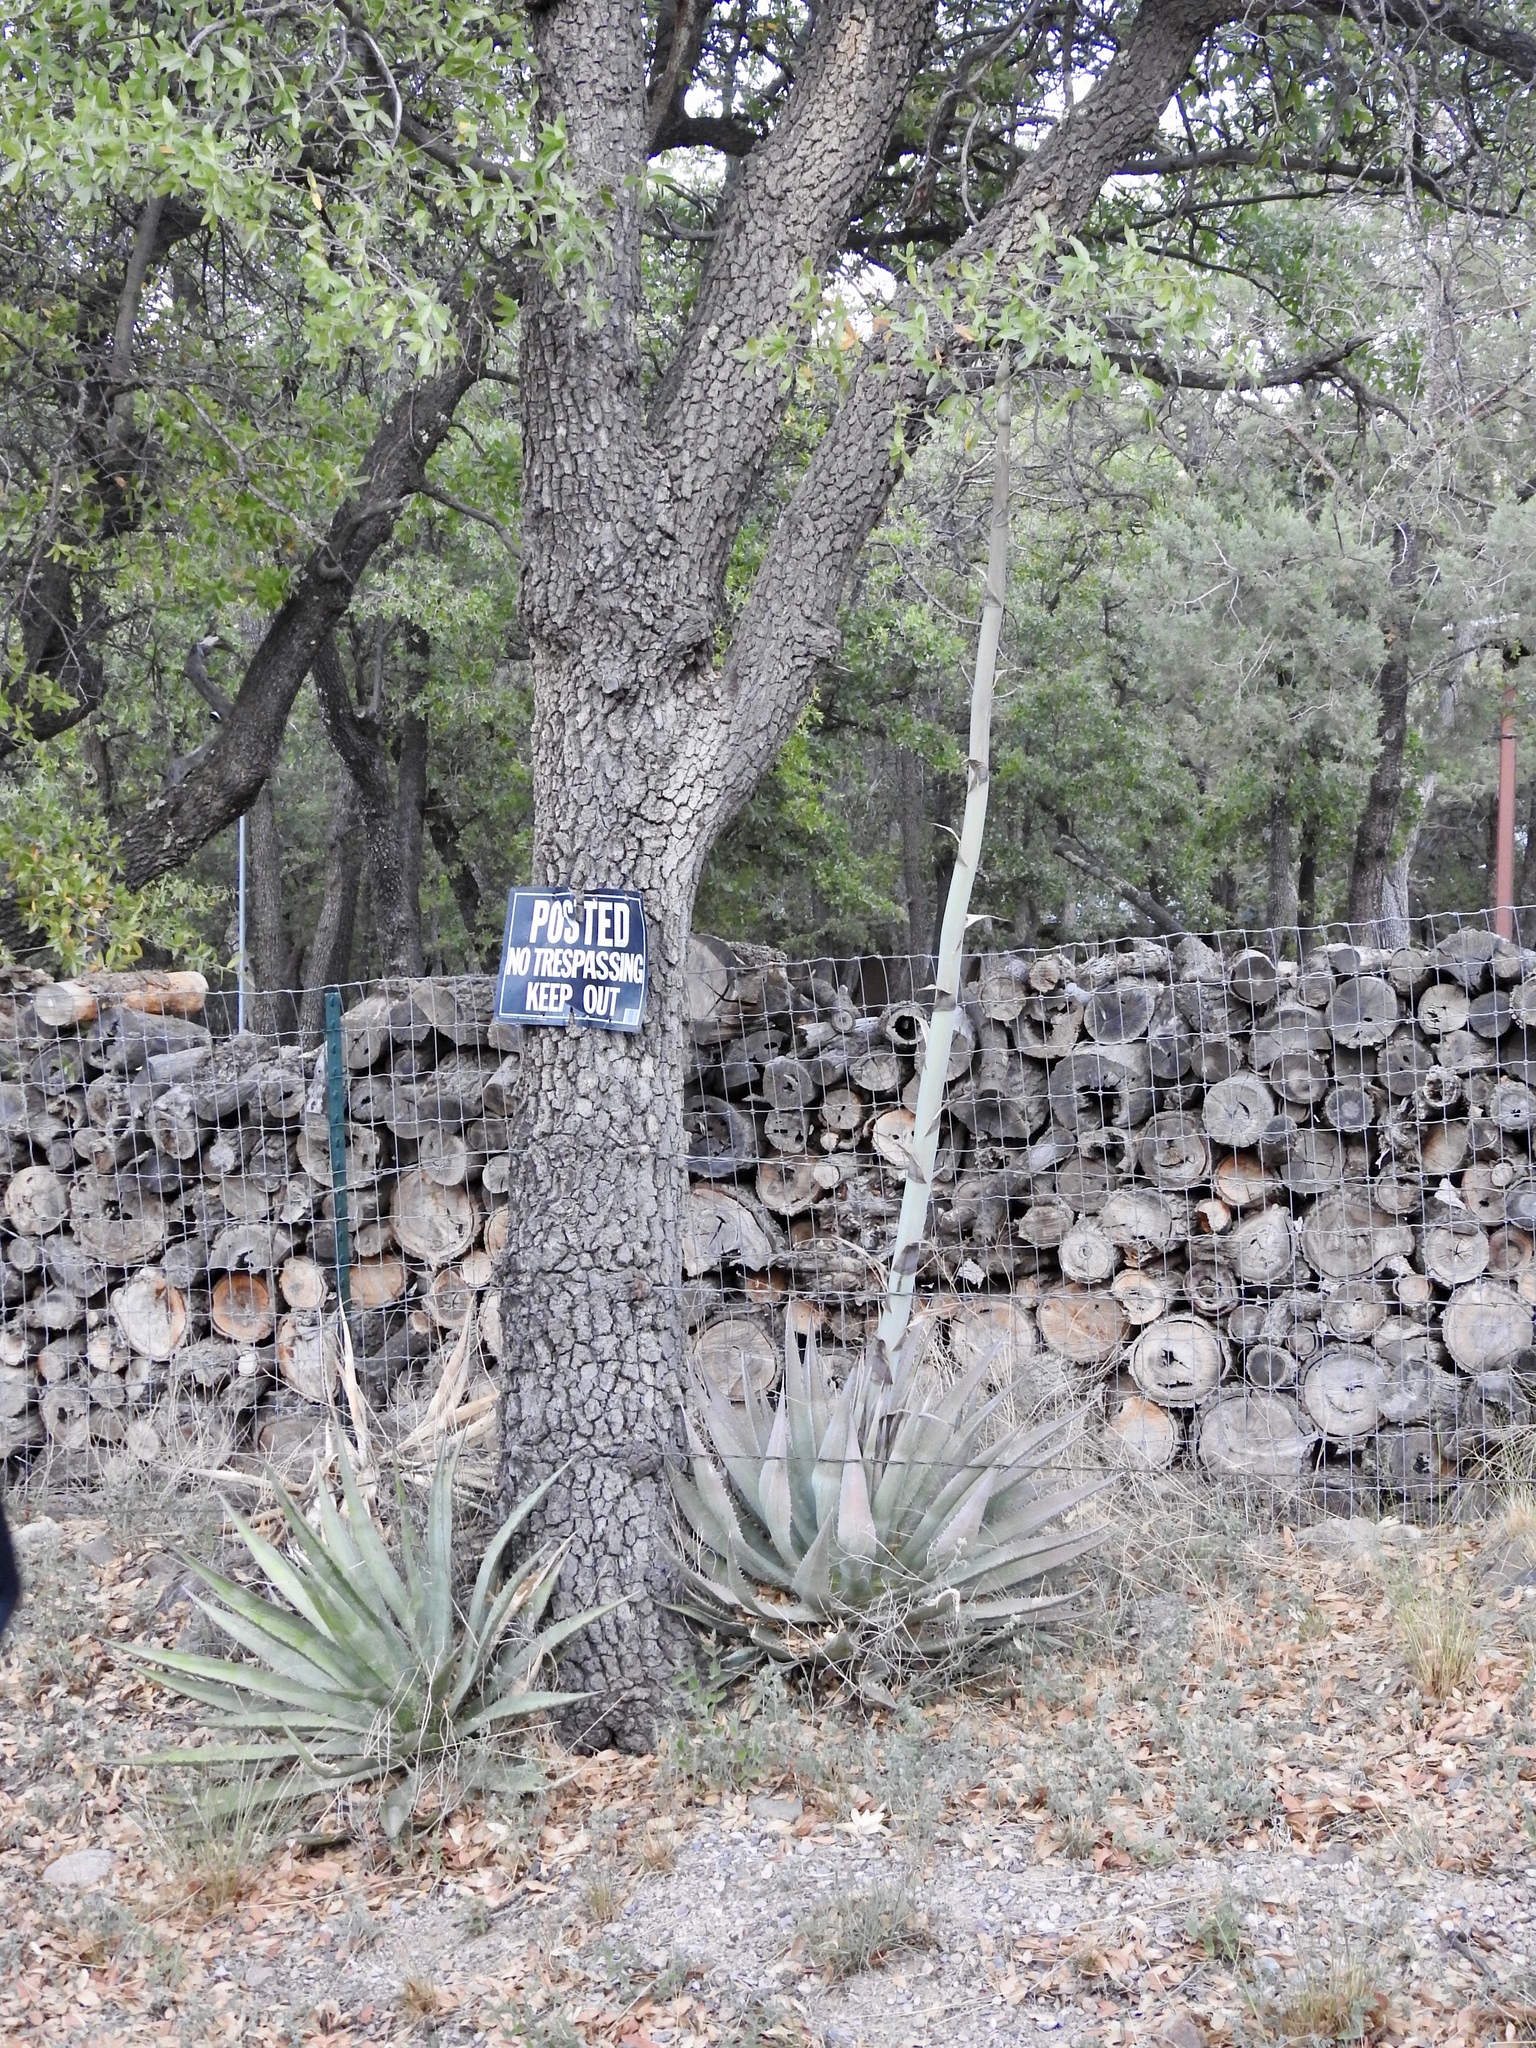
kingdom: Plantae
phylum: Tracheophyta
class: Liliopsida
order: Asparagales
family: Asparagaceae
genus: Agave
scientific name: Agave palmeri
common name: Palmer agave
